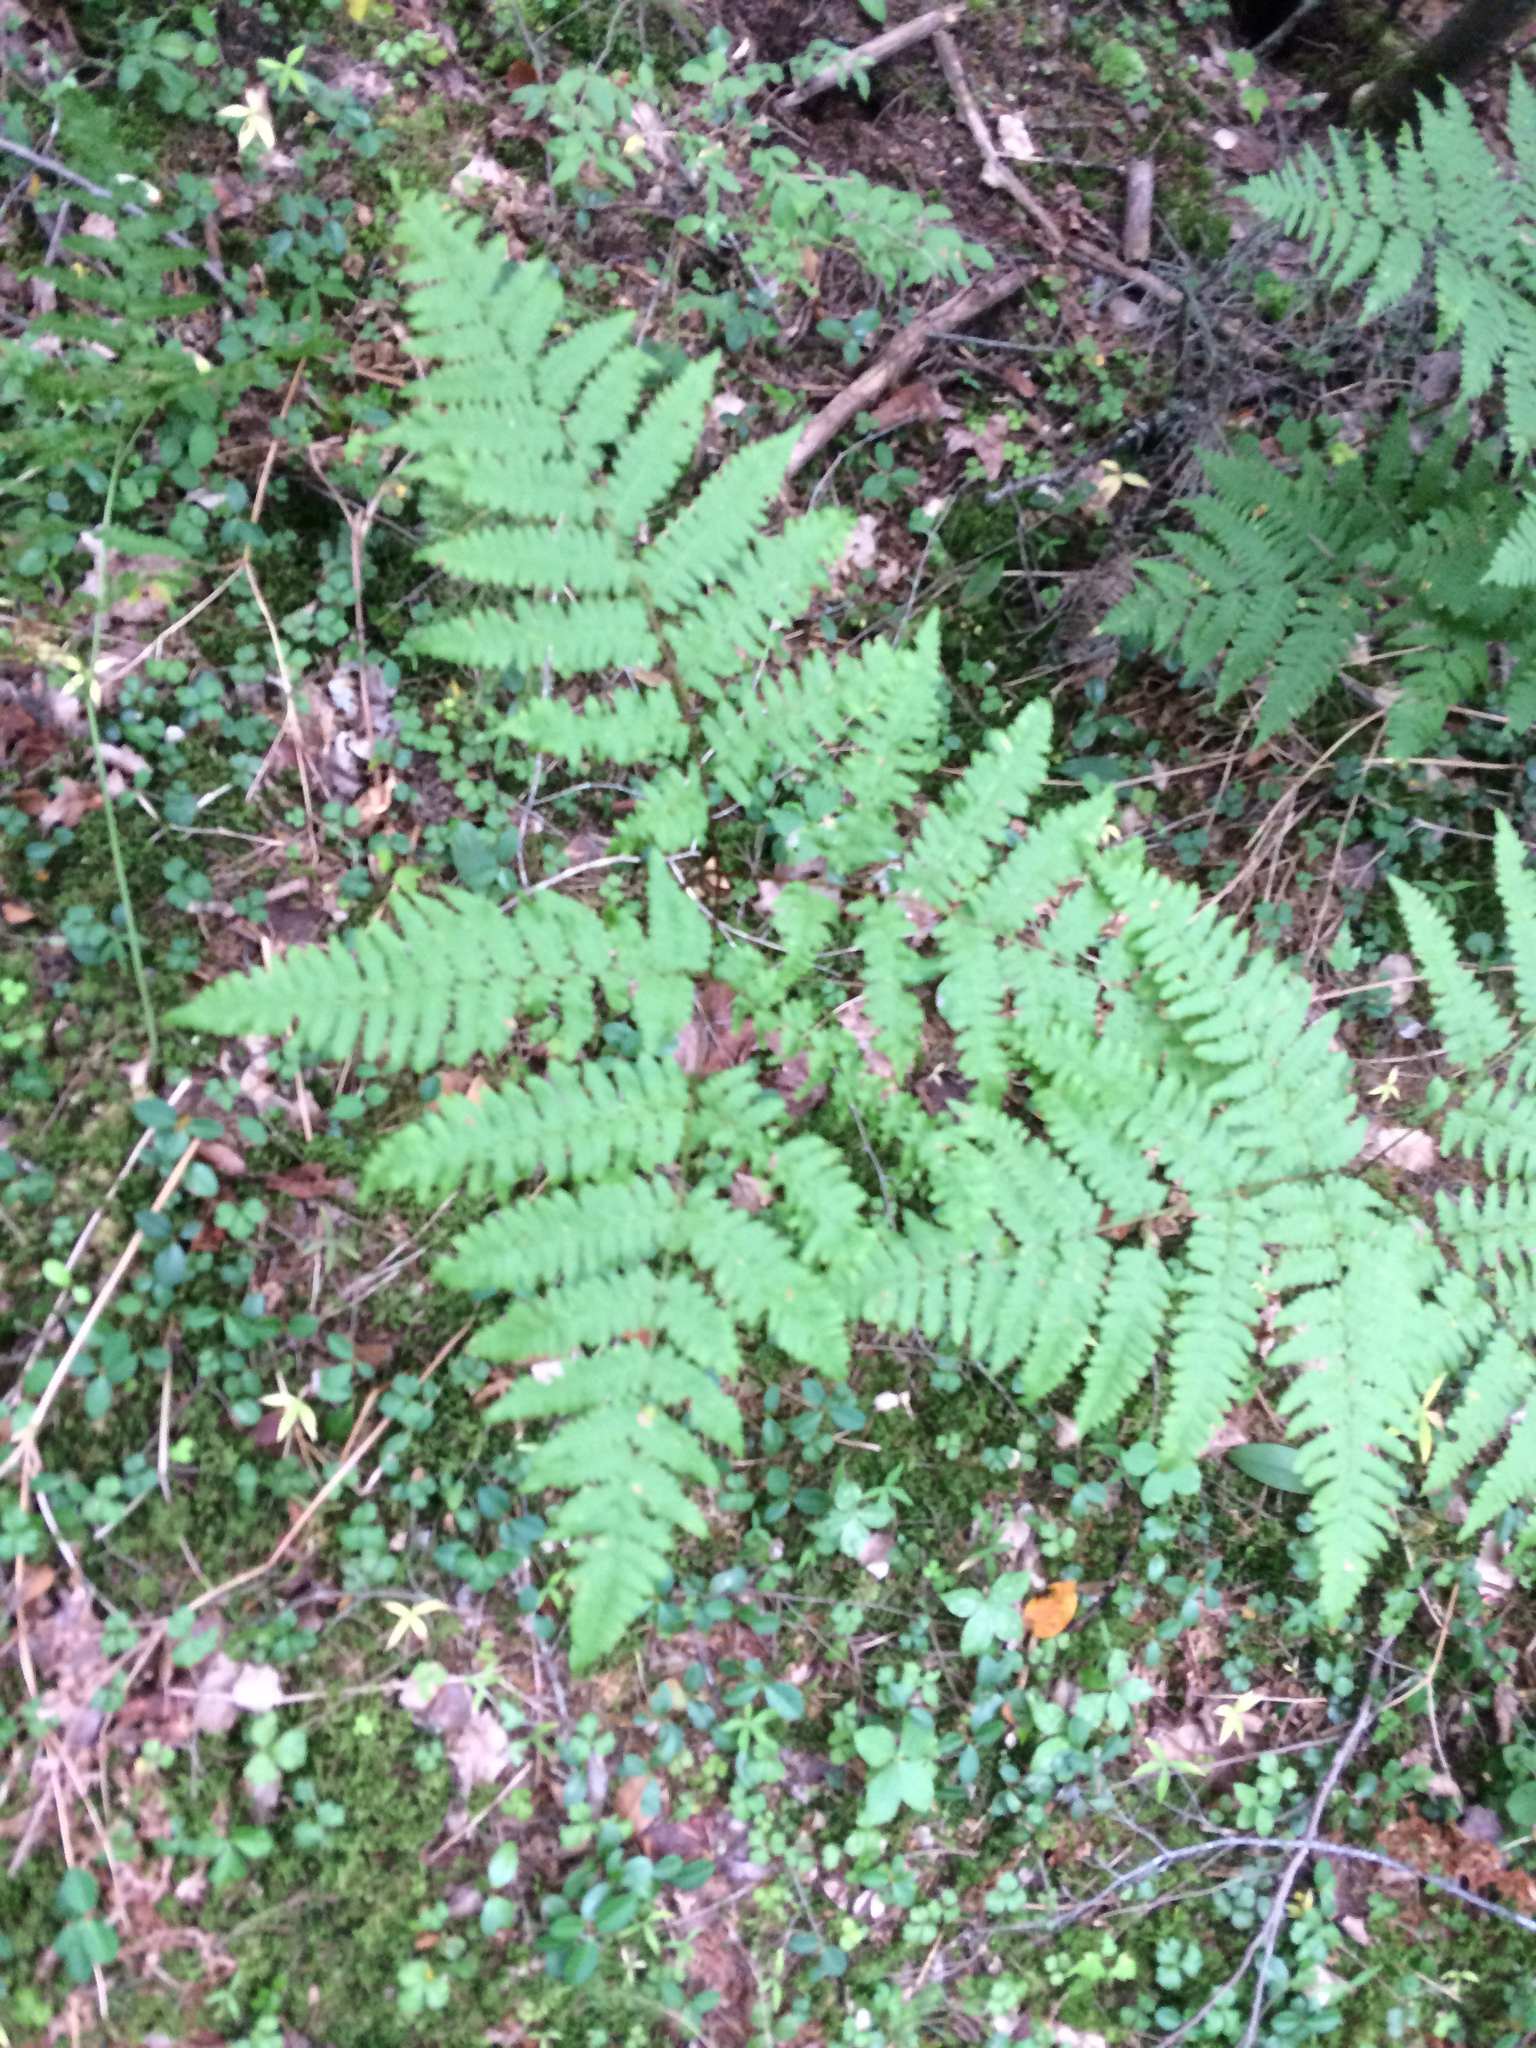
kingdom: Plantae
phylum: Tracheophyta
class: Polypodiopsida
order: Polypodiales
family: Dennstaedtiaceae
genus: Pteridium
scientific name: Pteridium aquilinum
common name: Bracken
